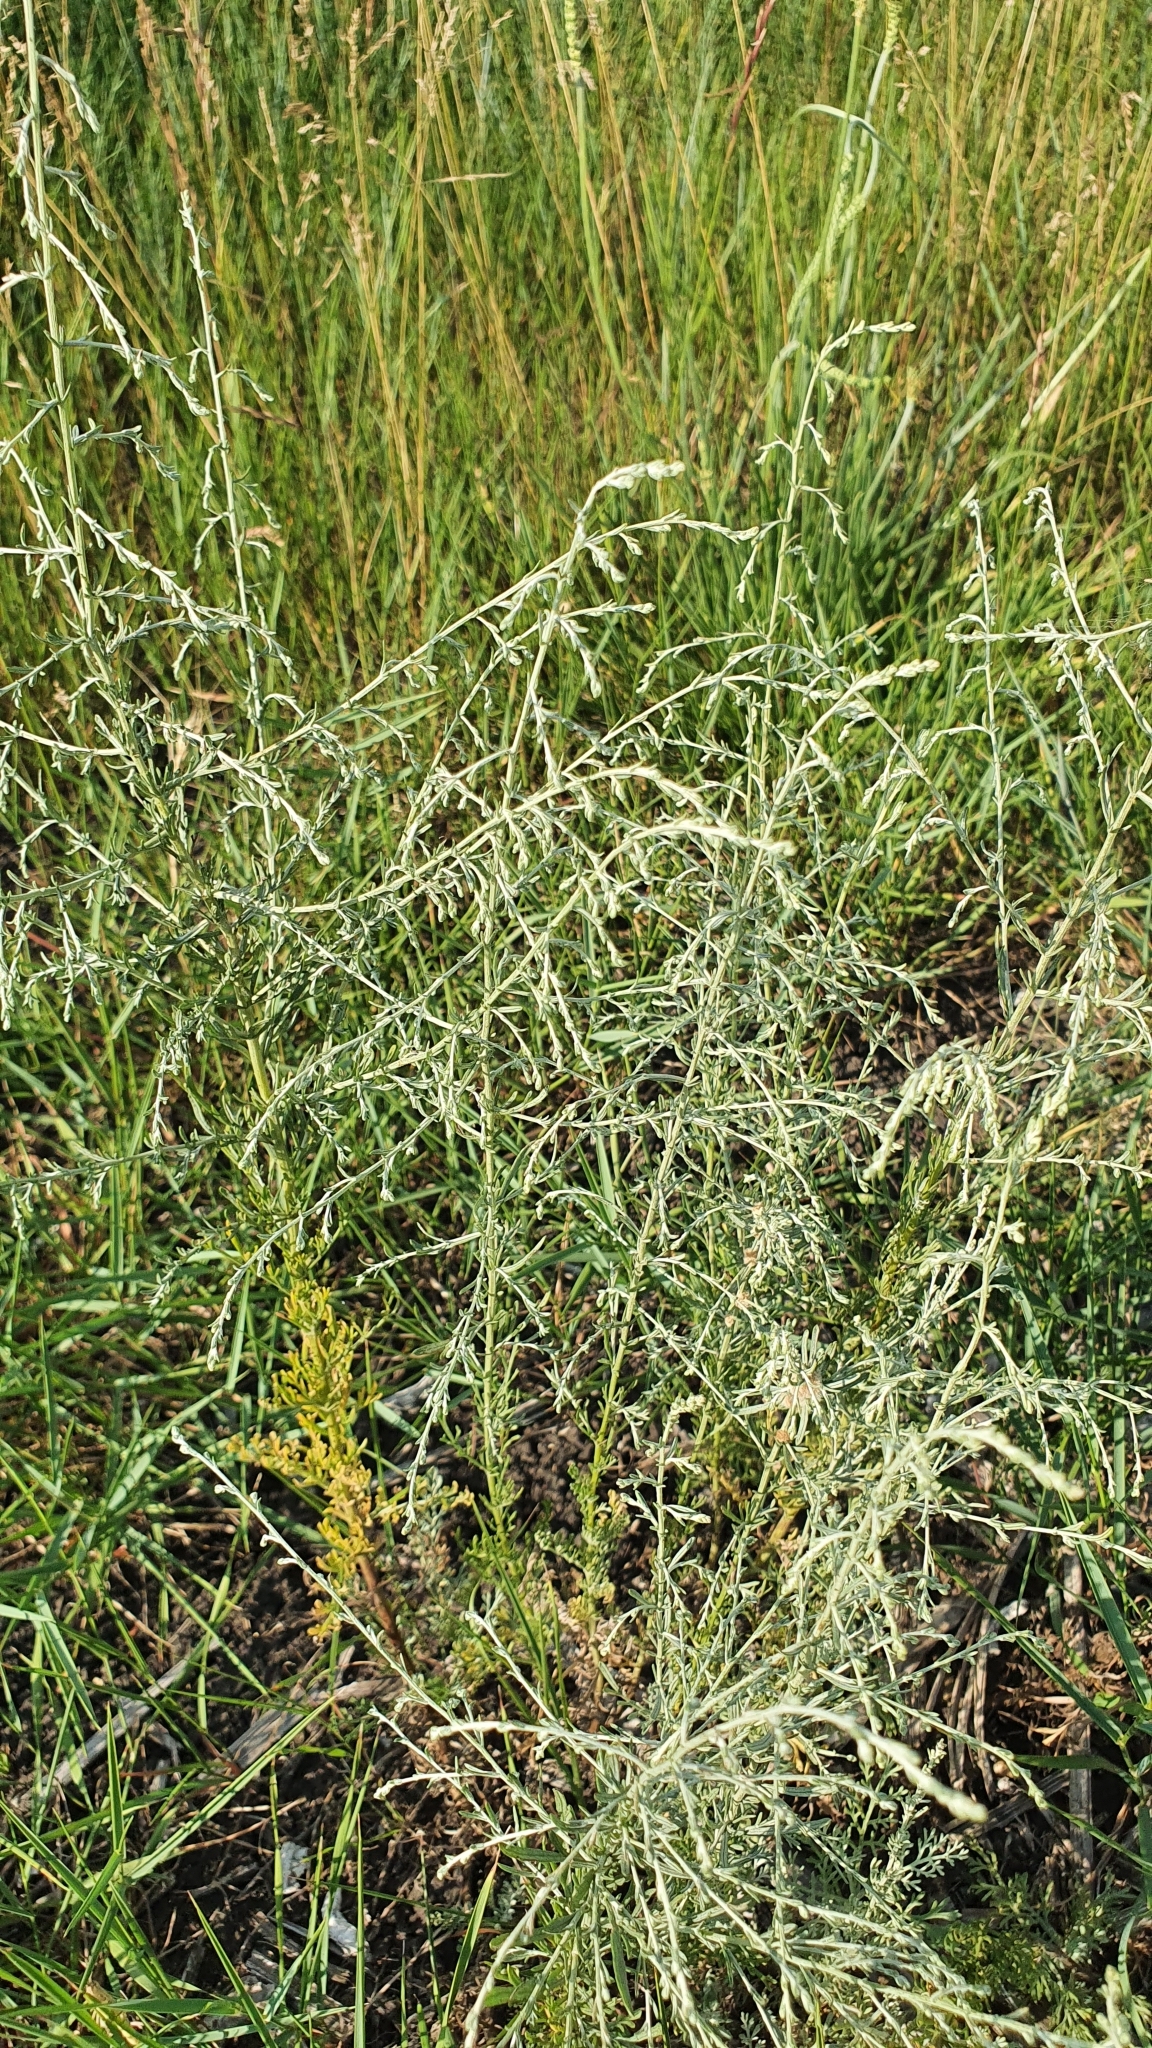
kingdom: Plantae
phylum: Tracheophyta
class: Magnoliopsida
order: Asterales
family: Asteraceae
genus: Artemisia
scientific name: Artemisia santonicum
